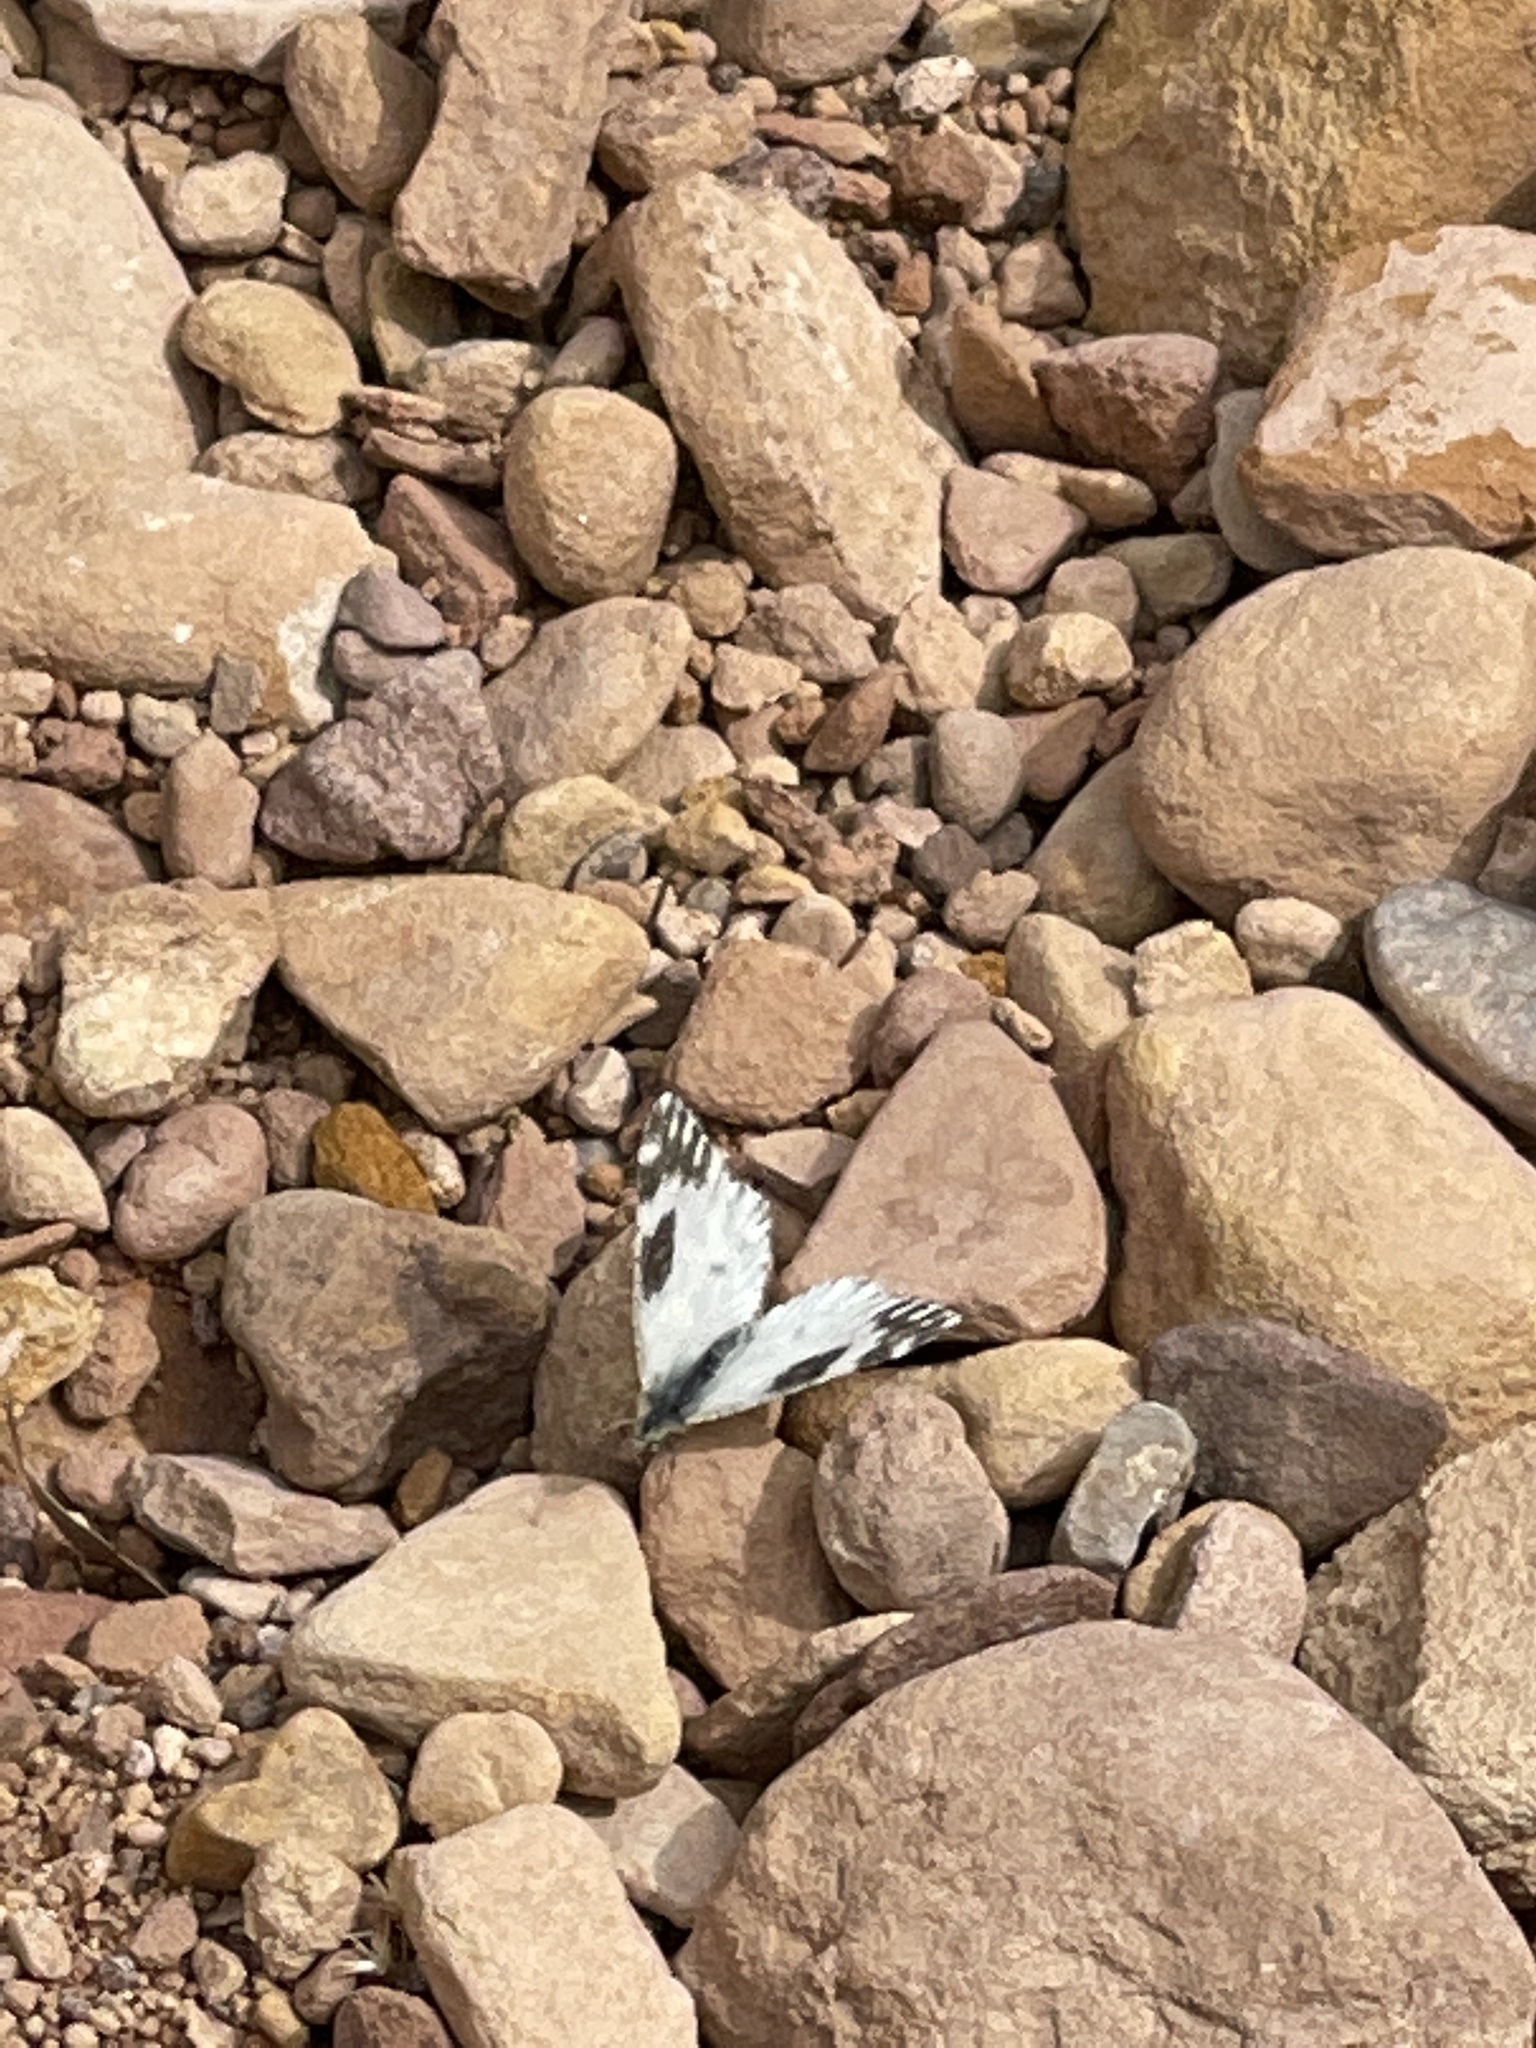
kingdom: Animalia
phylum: Arthropoda
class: Insecta
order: Lepidoptera
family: Pieridae
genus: Euchloe
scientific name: Euchloe lotta
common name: Desert marble
